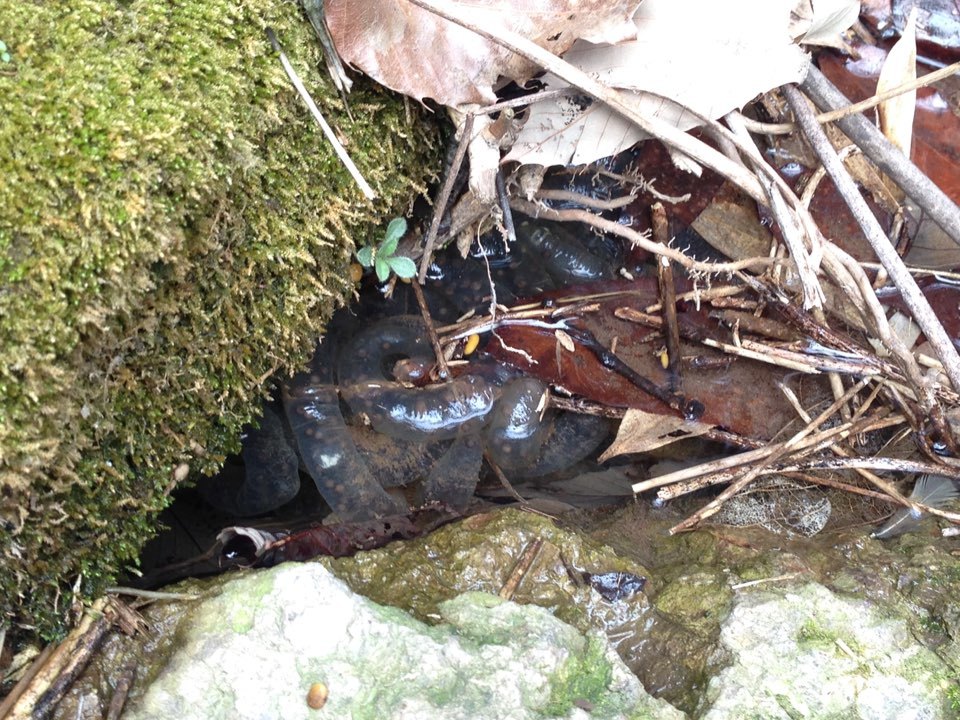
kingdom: Animalia
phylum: Chordata
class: Amphibia
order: Caudata
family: Hynobiidae
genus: Hynobius
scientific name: Hynobius yangi
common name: Yangi salamander
